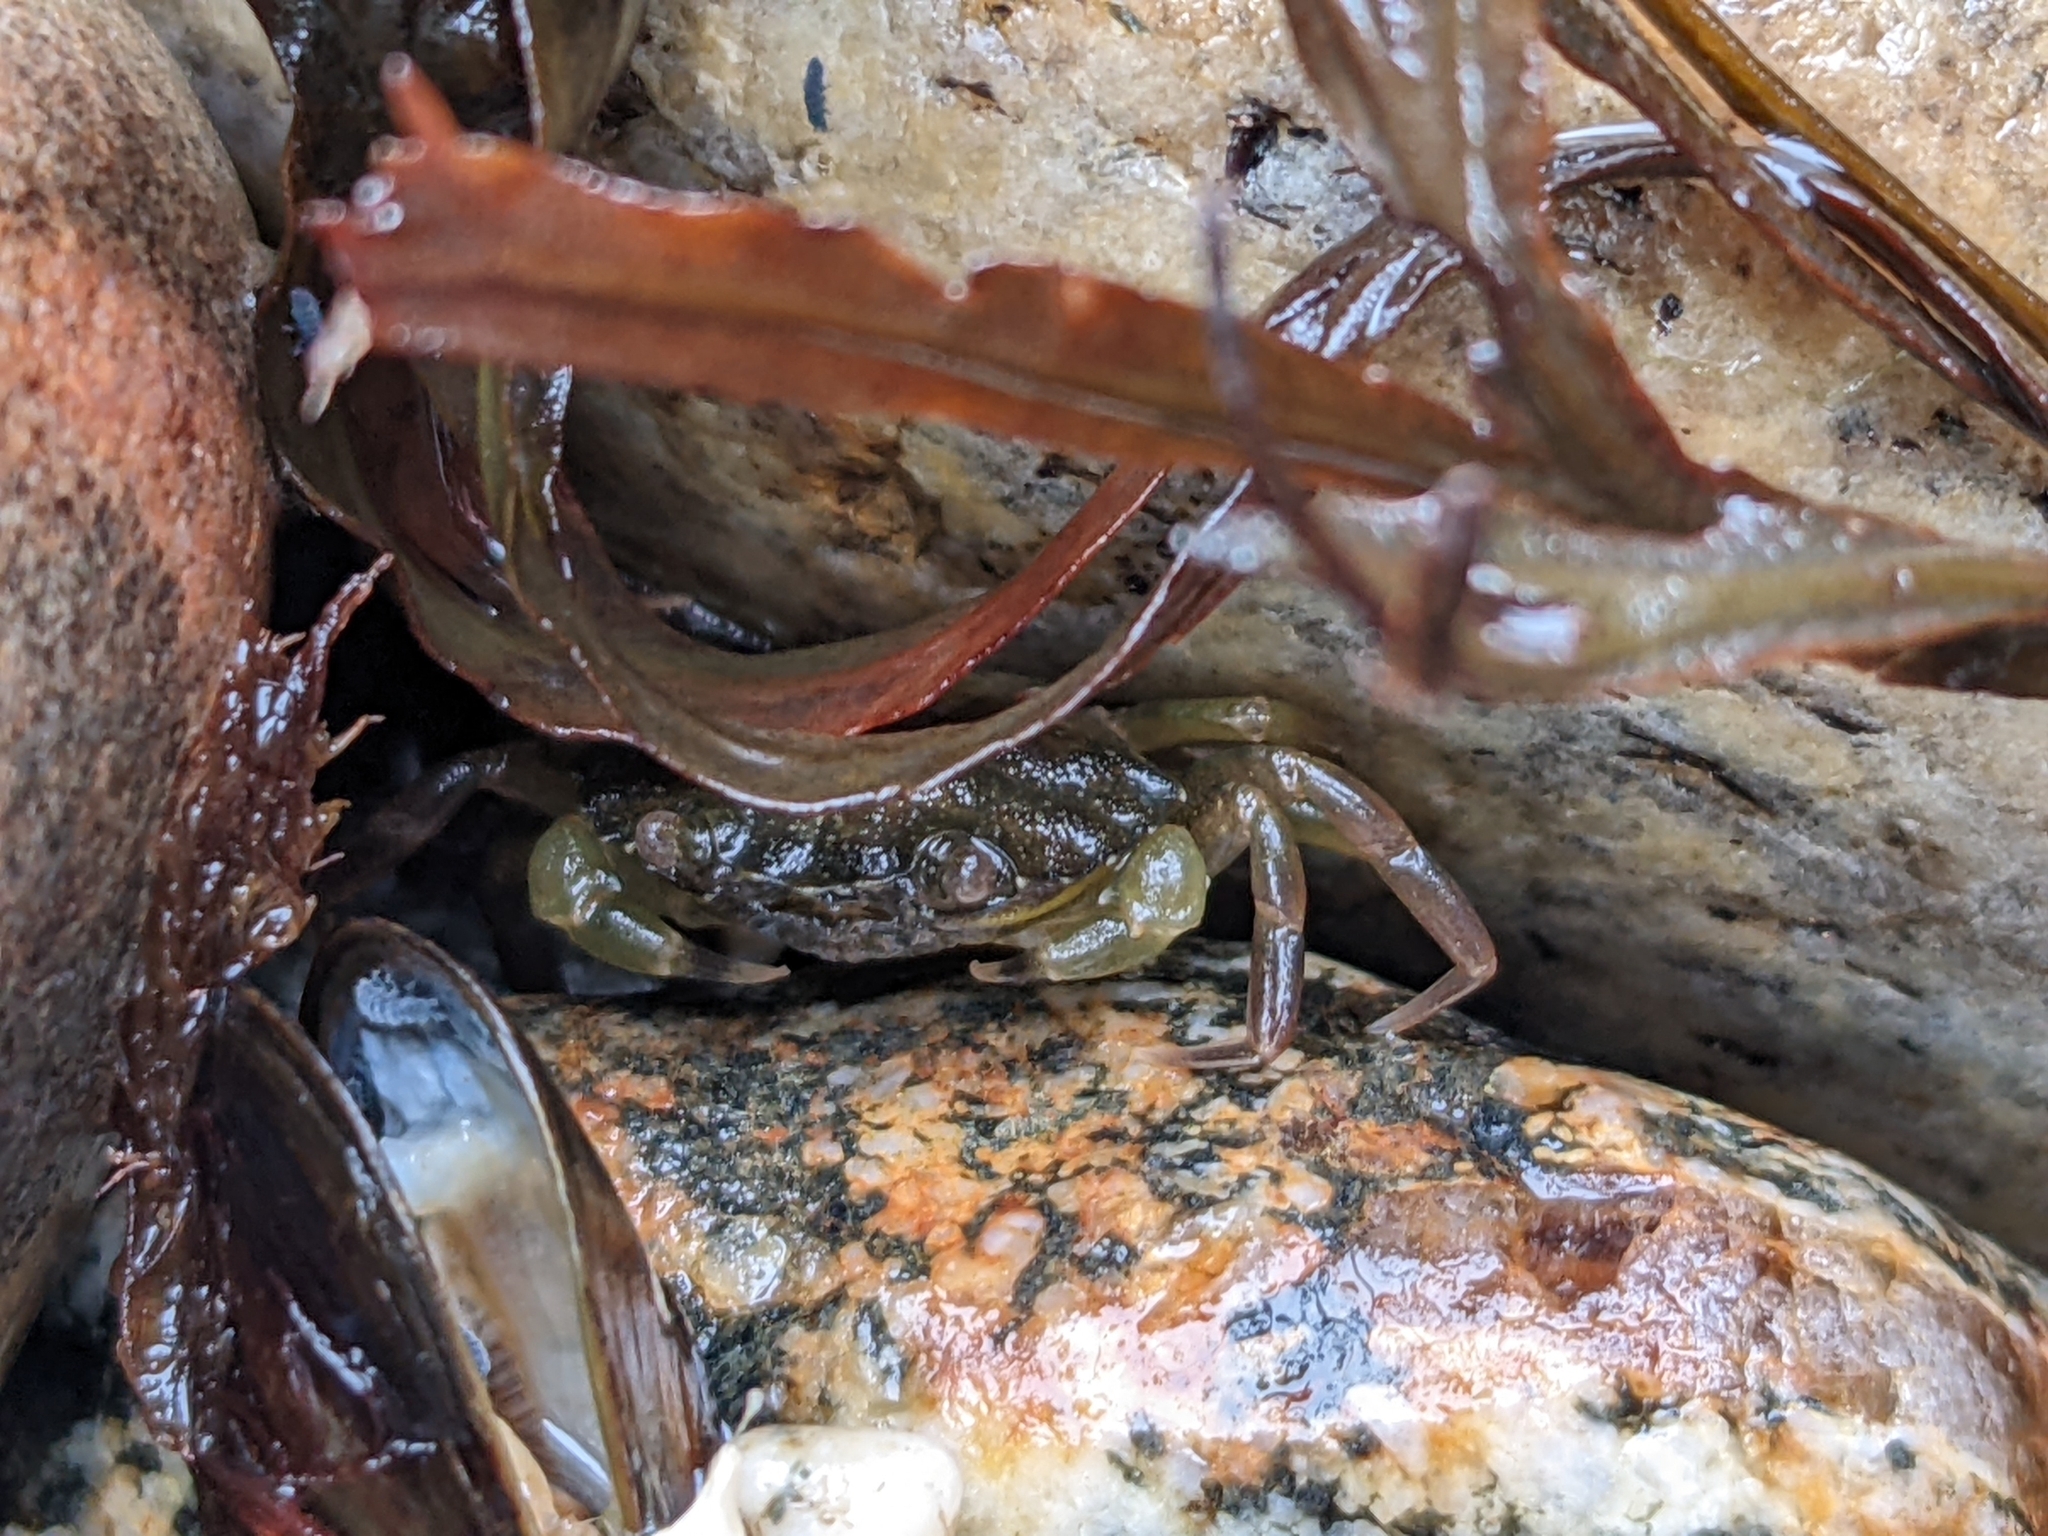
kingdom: Animalia
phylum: Arthropoda
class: Malacostraca
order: Decapoda
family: Carcinidae
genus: Carcinus
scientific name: Carcinus maenas
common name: European green crab
